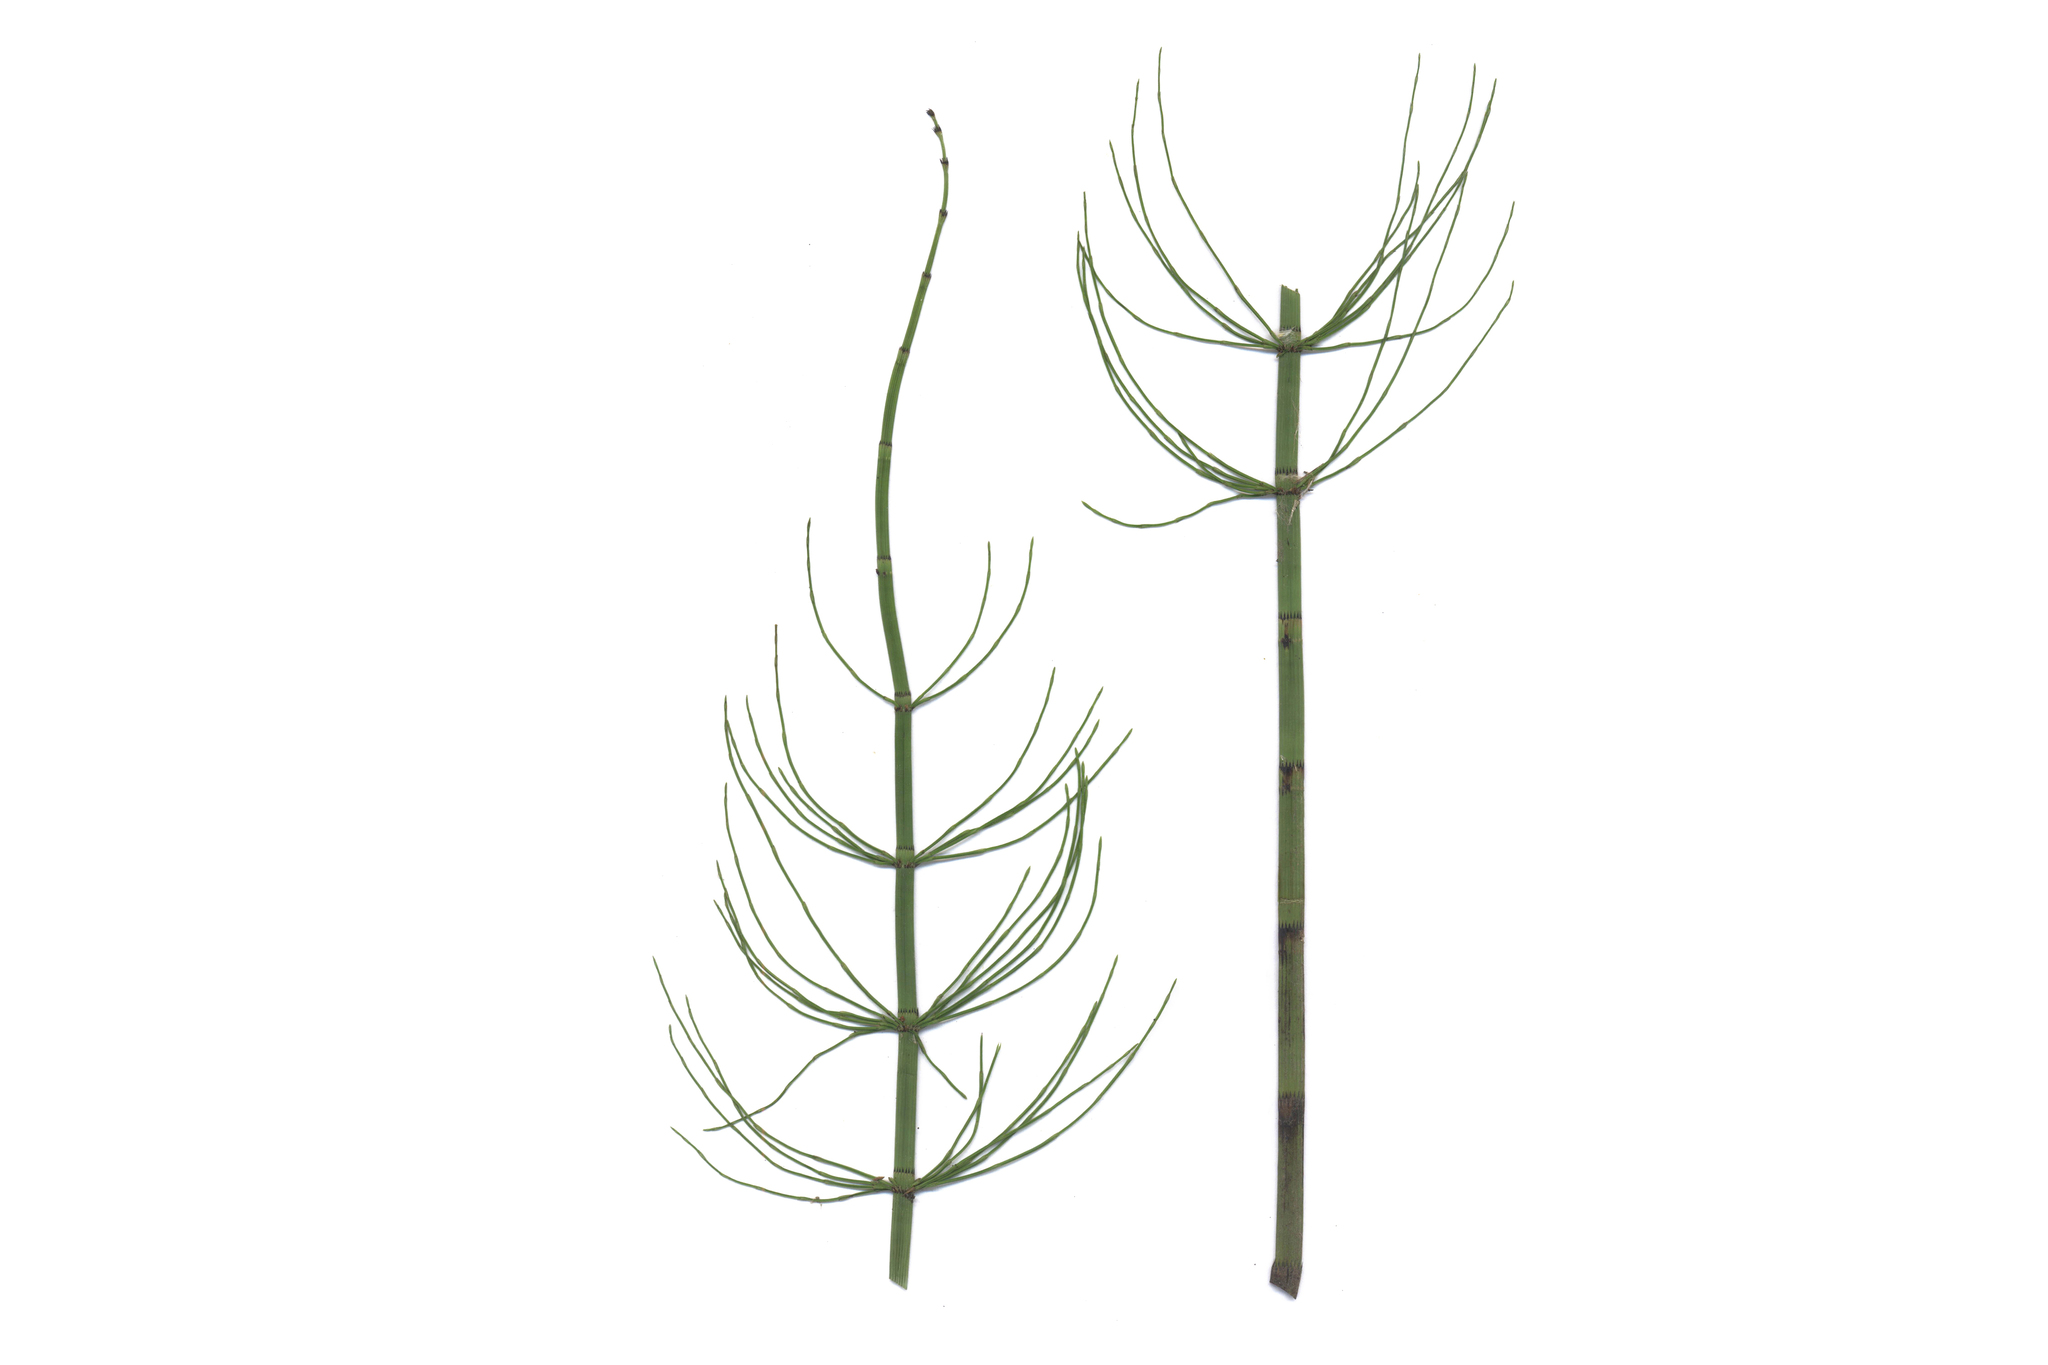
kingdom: Plantae
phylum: Tracheophyta
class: Polypodiopsida
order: Equisetales
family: Equisetaceae
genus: Equisetum
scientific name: Equisetum fluviatile
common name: Water horsetail
